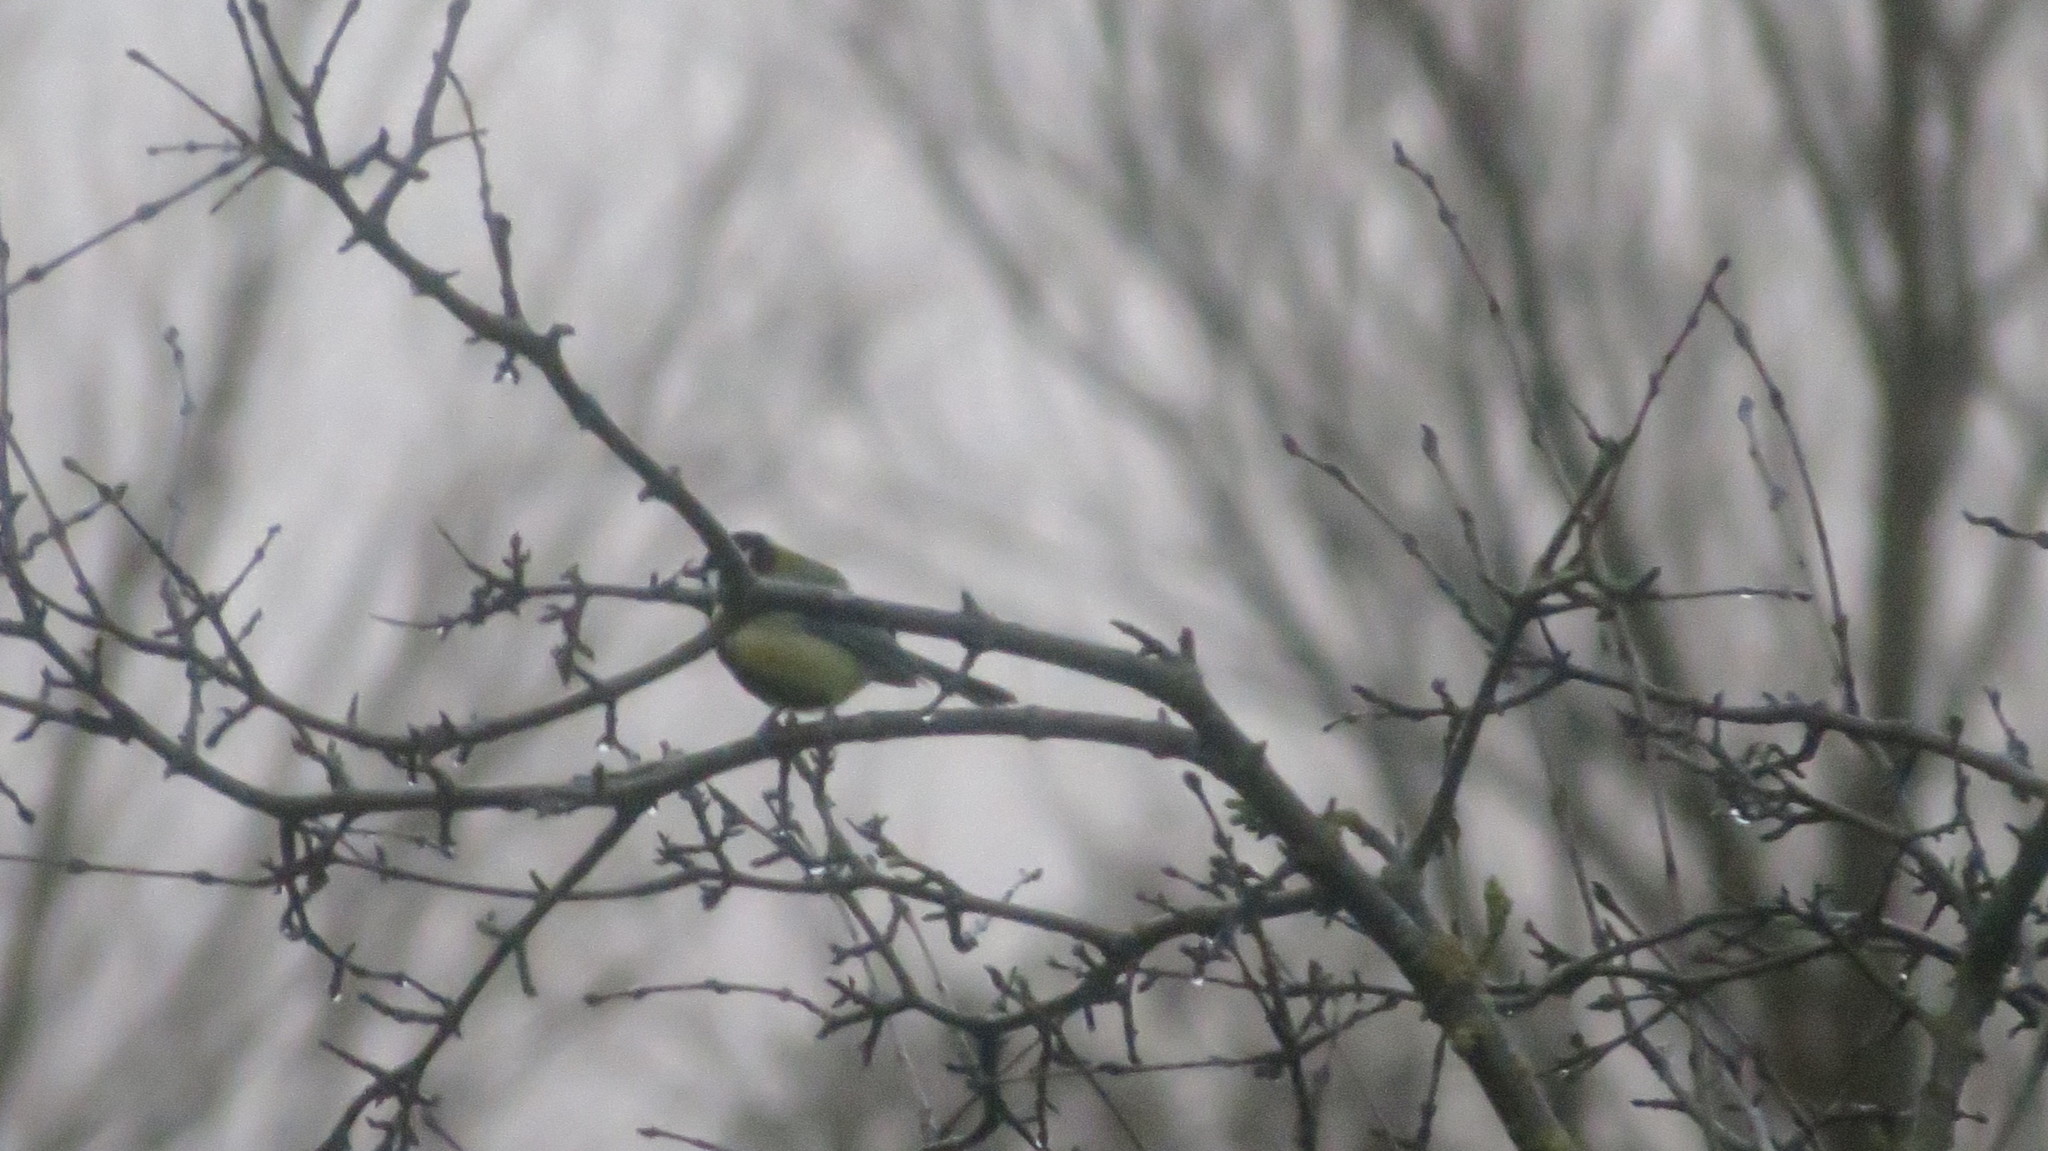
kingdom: Animalia
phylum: Chordata
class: Aves
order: Passeriformes
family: Paridae
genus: Parus
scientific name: Parus major
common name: Great tit
